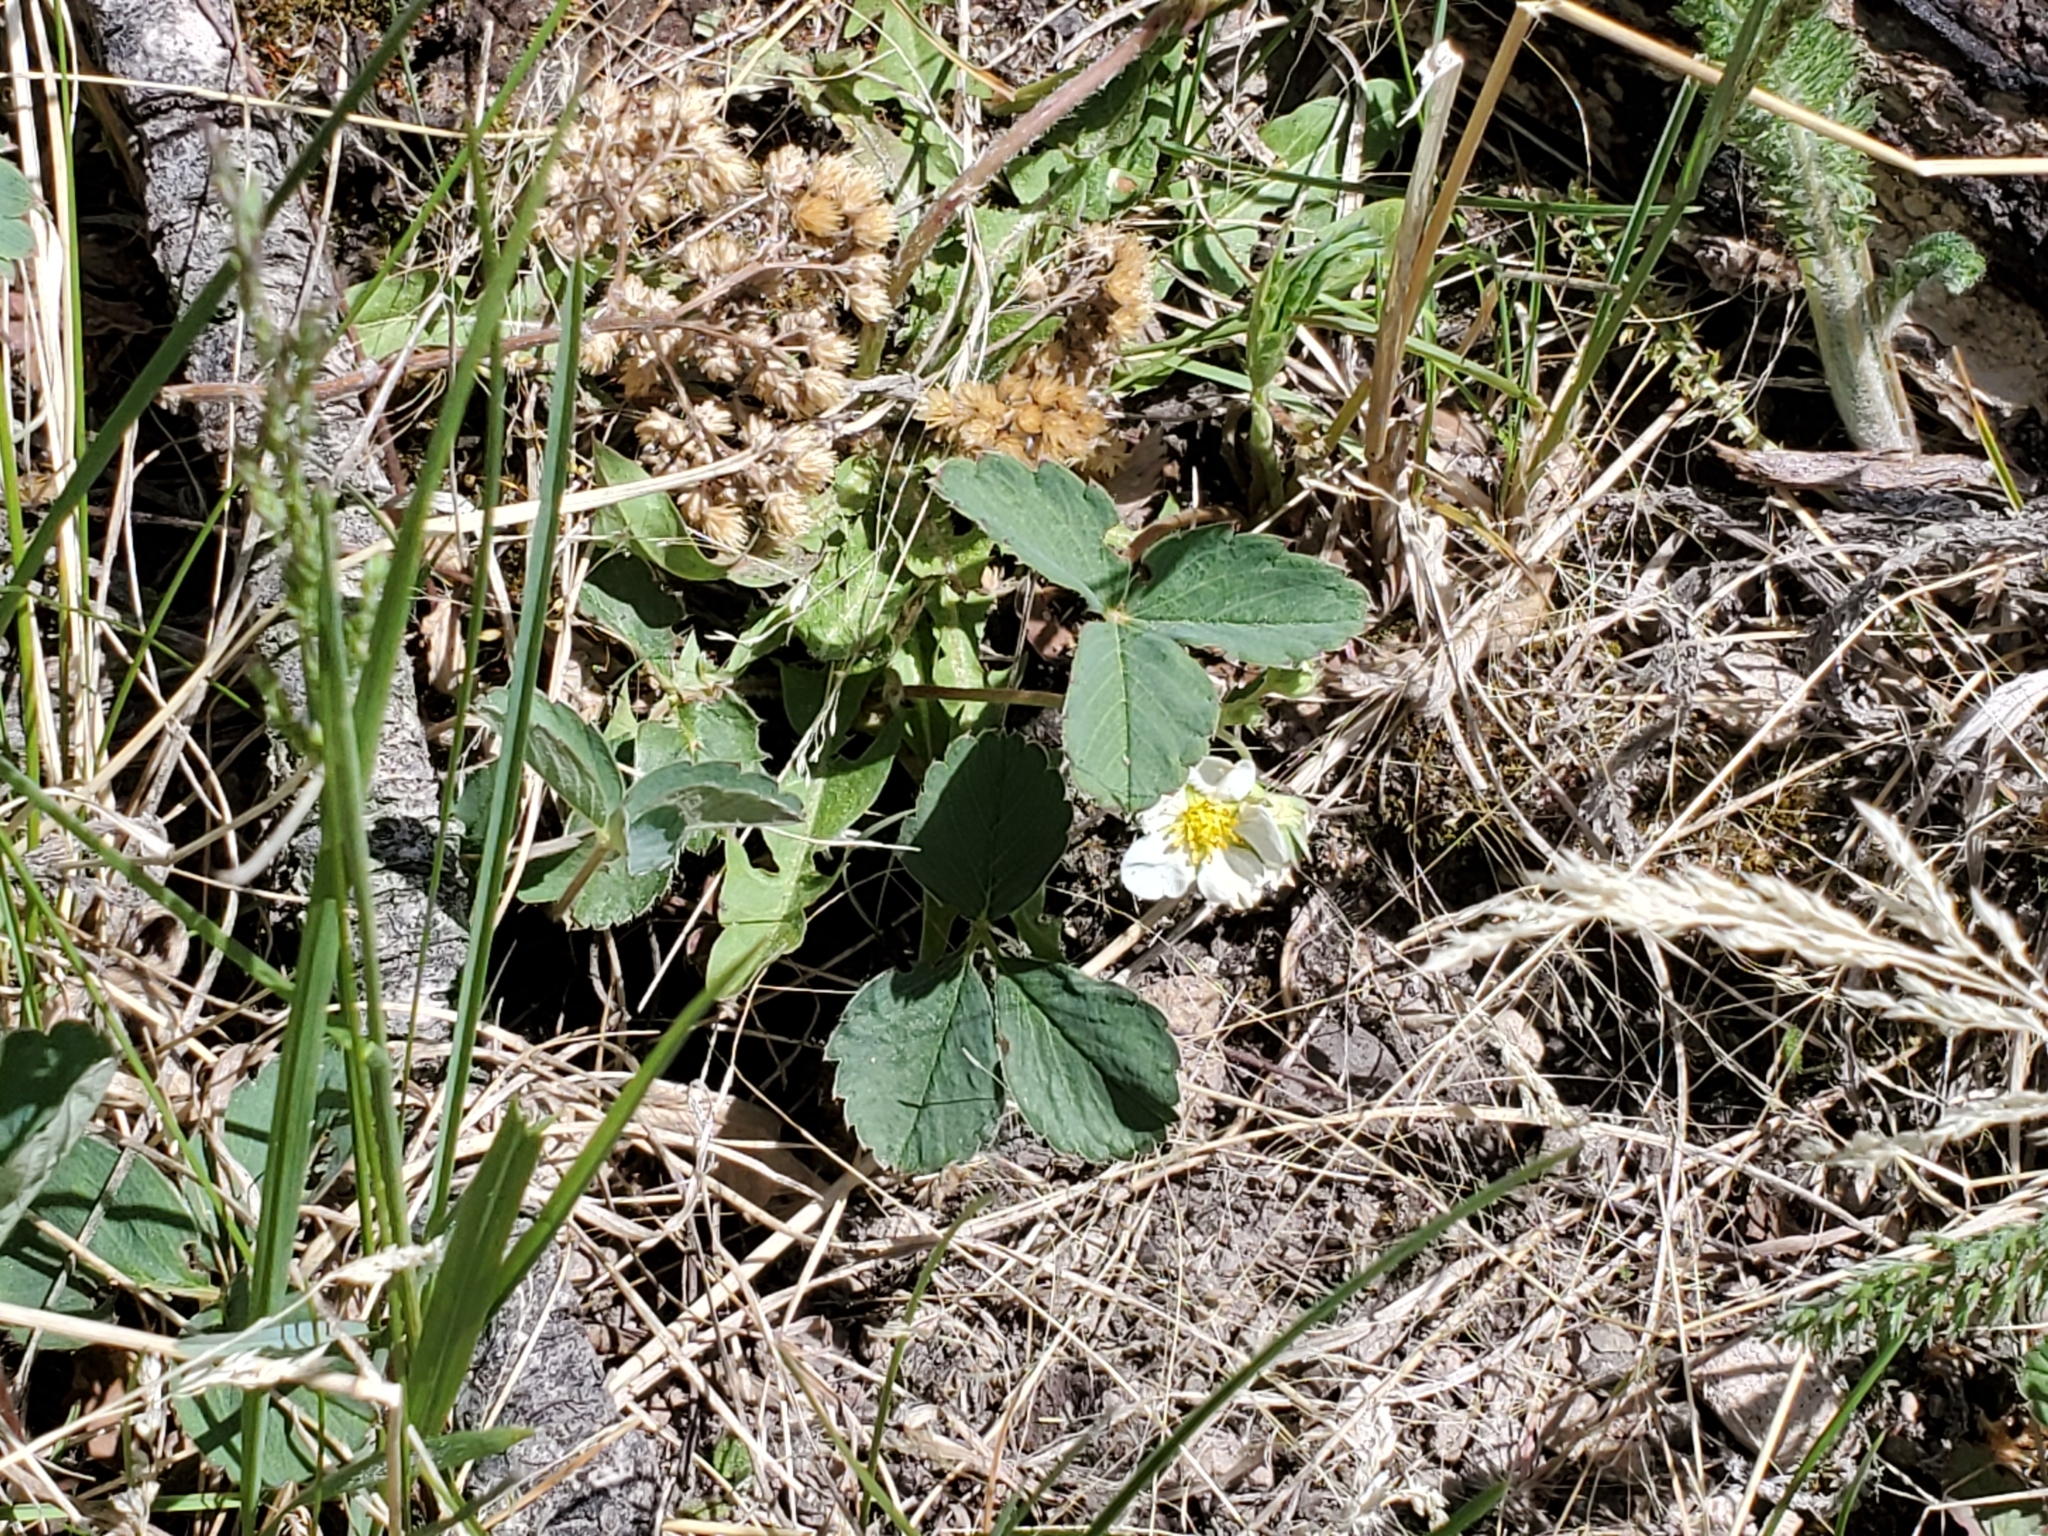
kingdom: Plantae
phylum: Tracheophyta
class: Magnoliopsida
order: Rosales
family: Rosaceae
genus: Fragaria
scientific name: Fragaria virginiana
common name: Thickleaved wild strawberry
